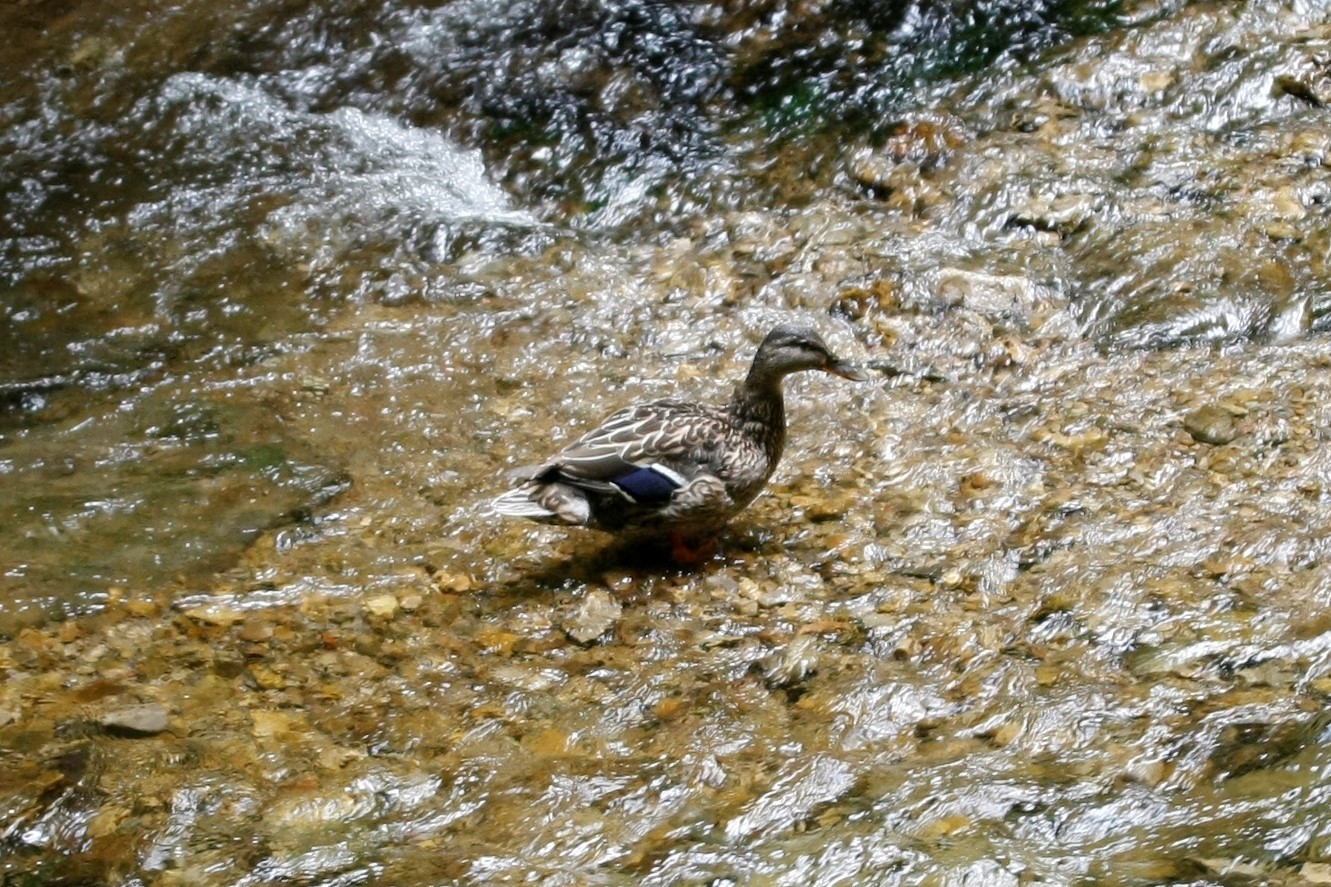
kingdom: Animalia
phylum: Chordata
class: Aves
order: Anseriformes
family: Anatidae
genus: Anas
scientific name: Anas platyrhynchos
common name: Mallard
